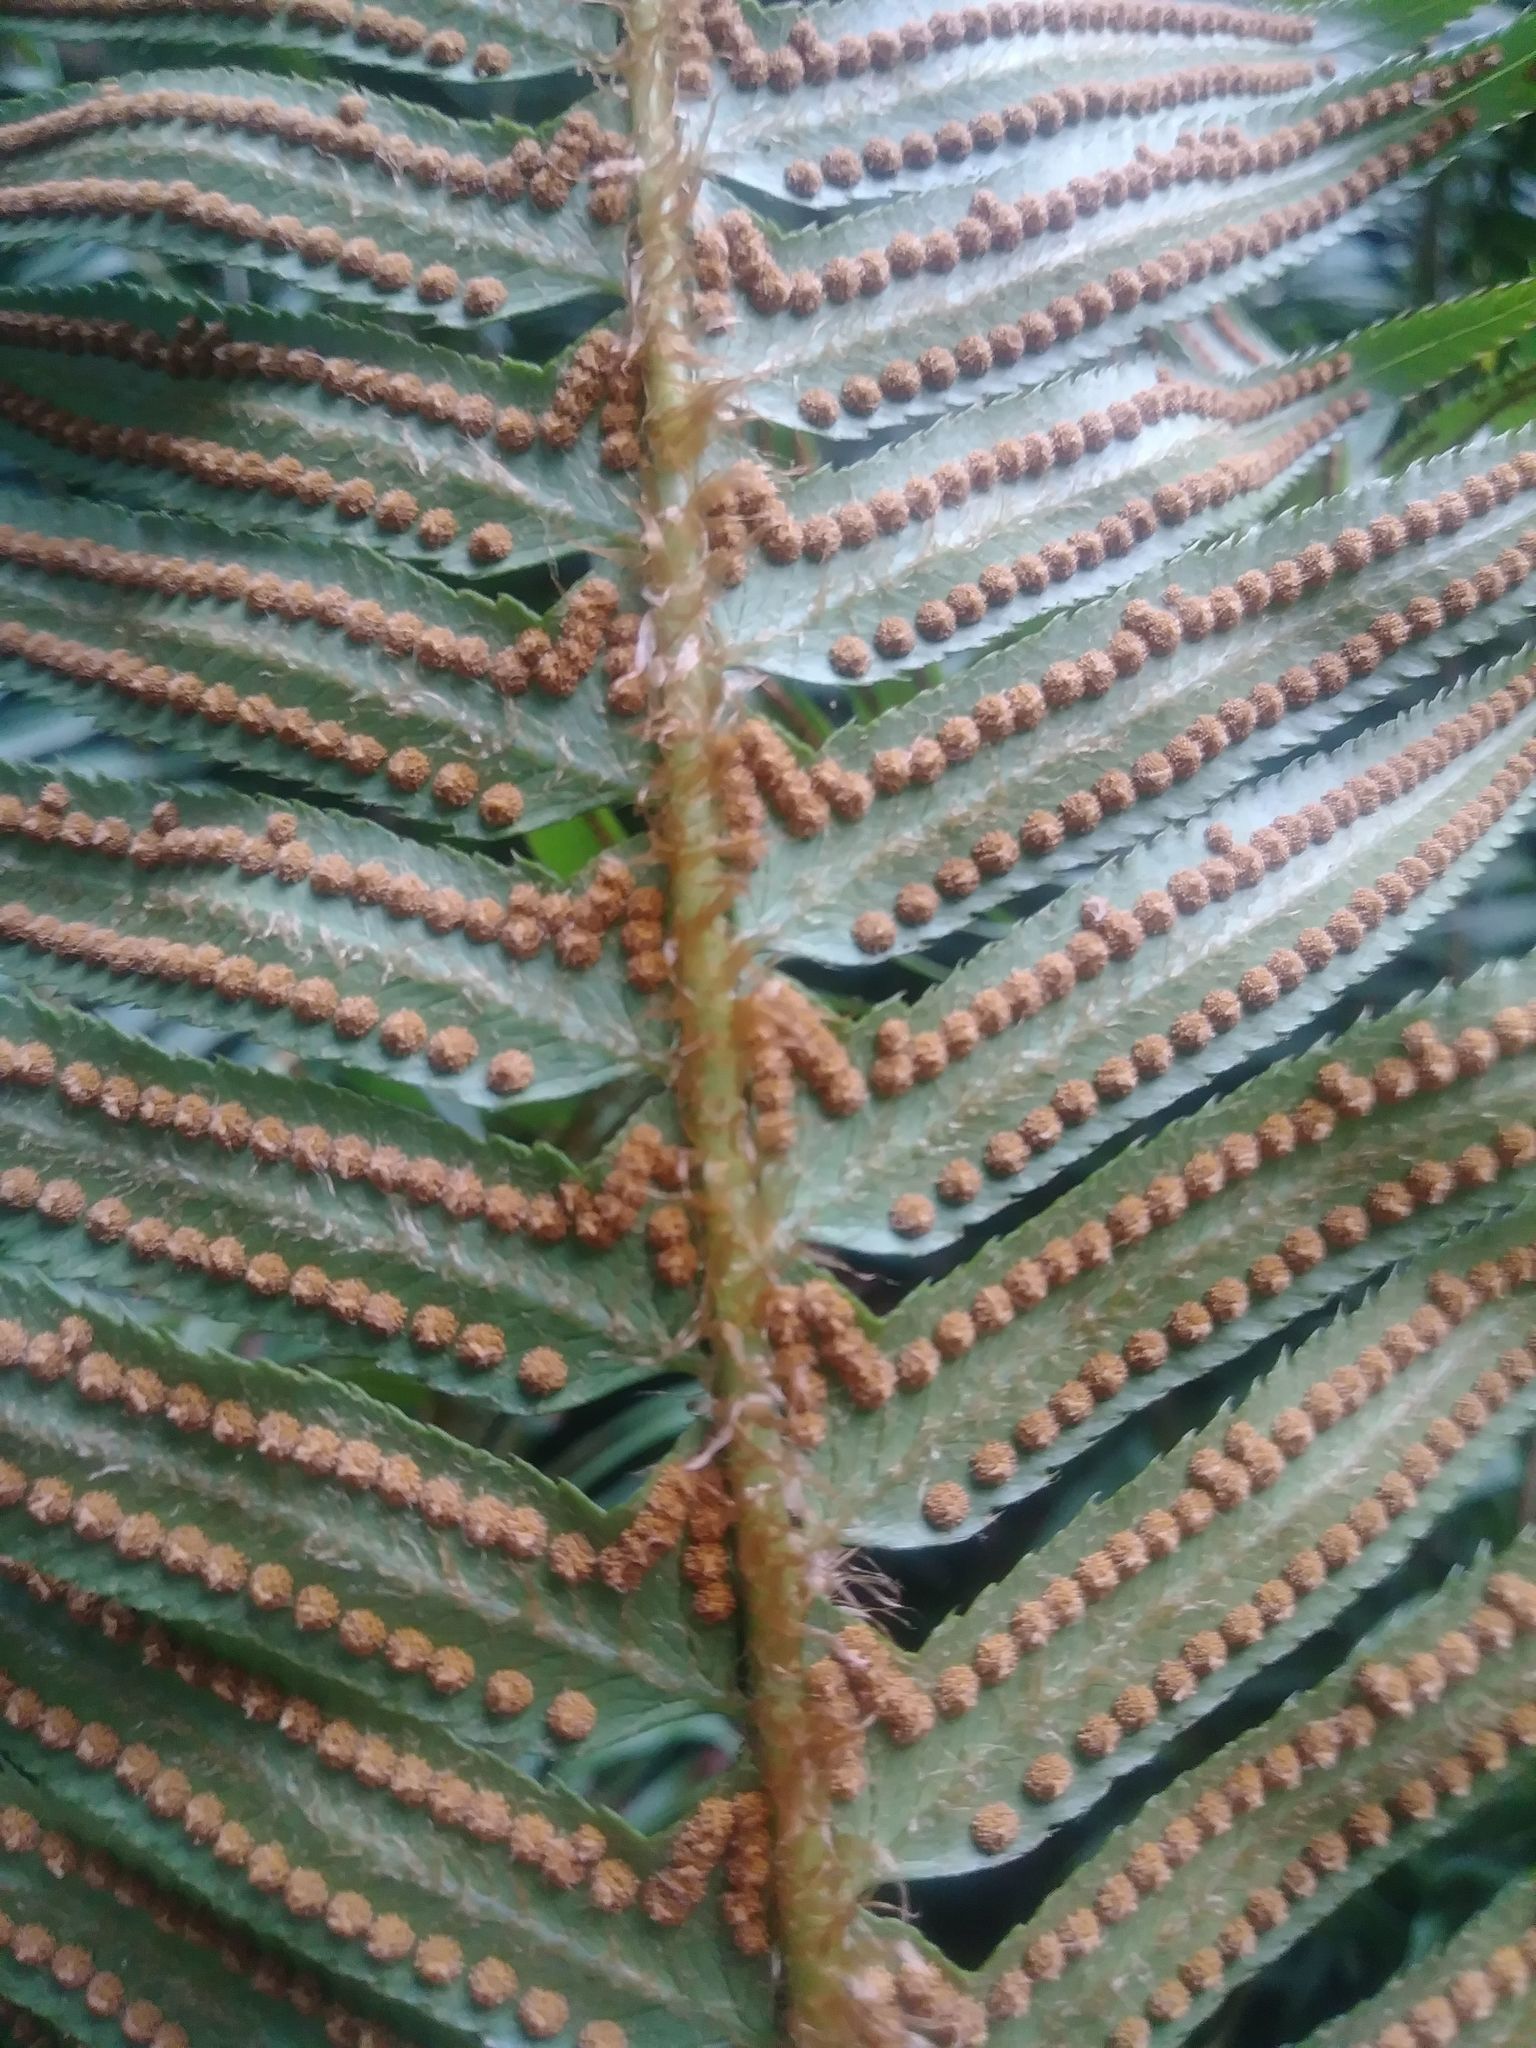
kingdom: Plantae
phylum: Tracheophyta
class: Polypodiopsida
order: Polypodiales
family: Dryopteridaceae
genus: Polystichum
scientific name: Polystichum munitum
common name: Western sword-fern
